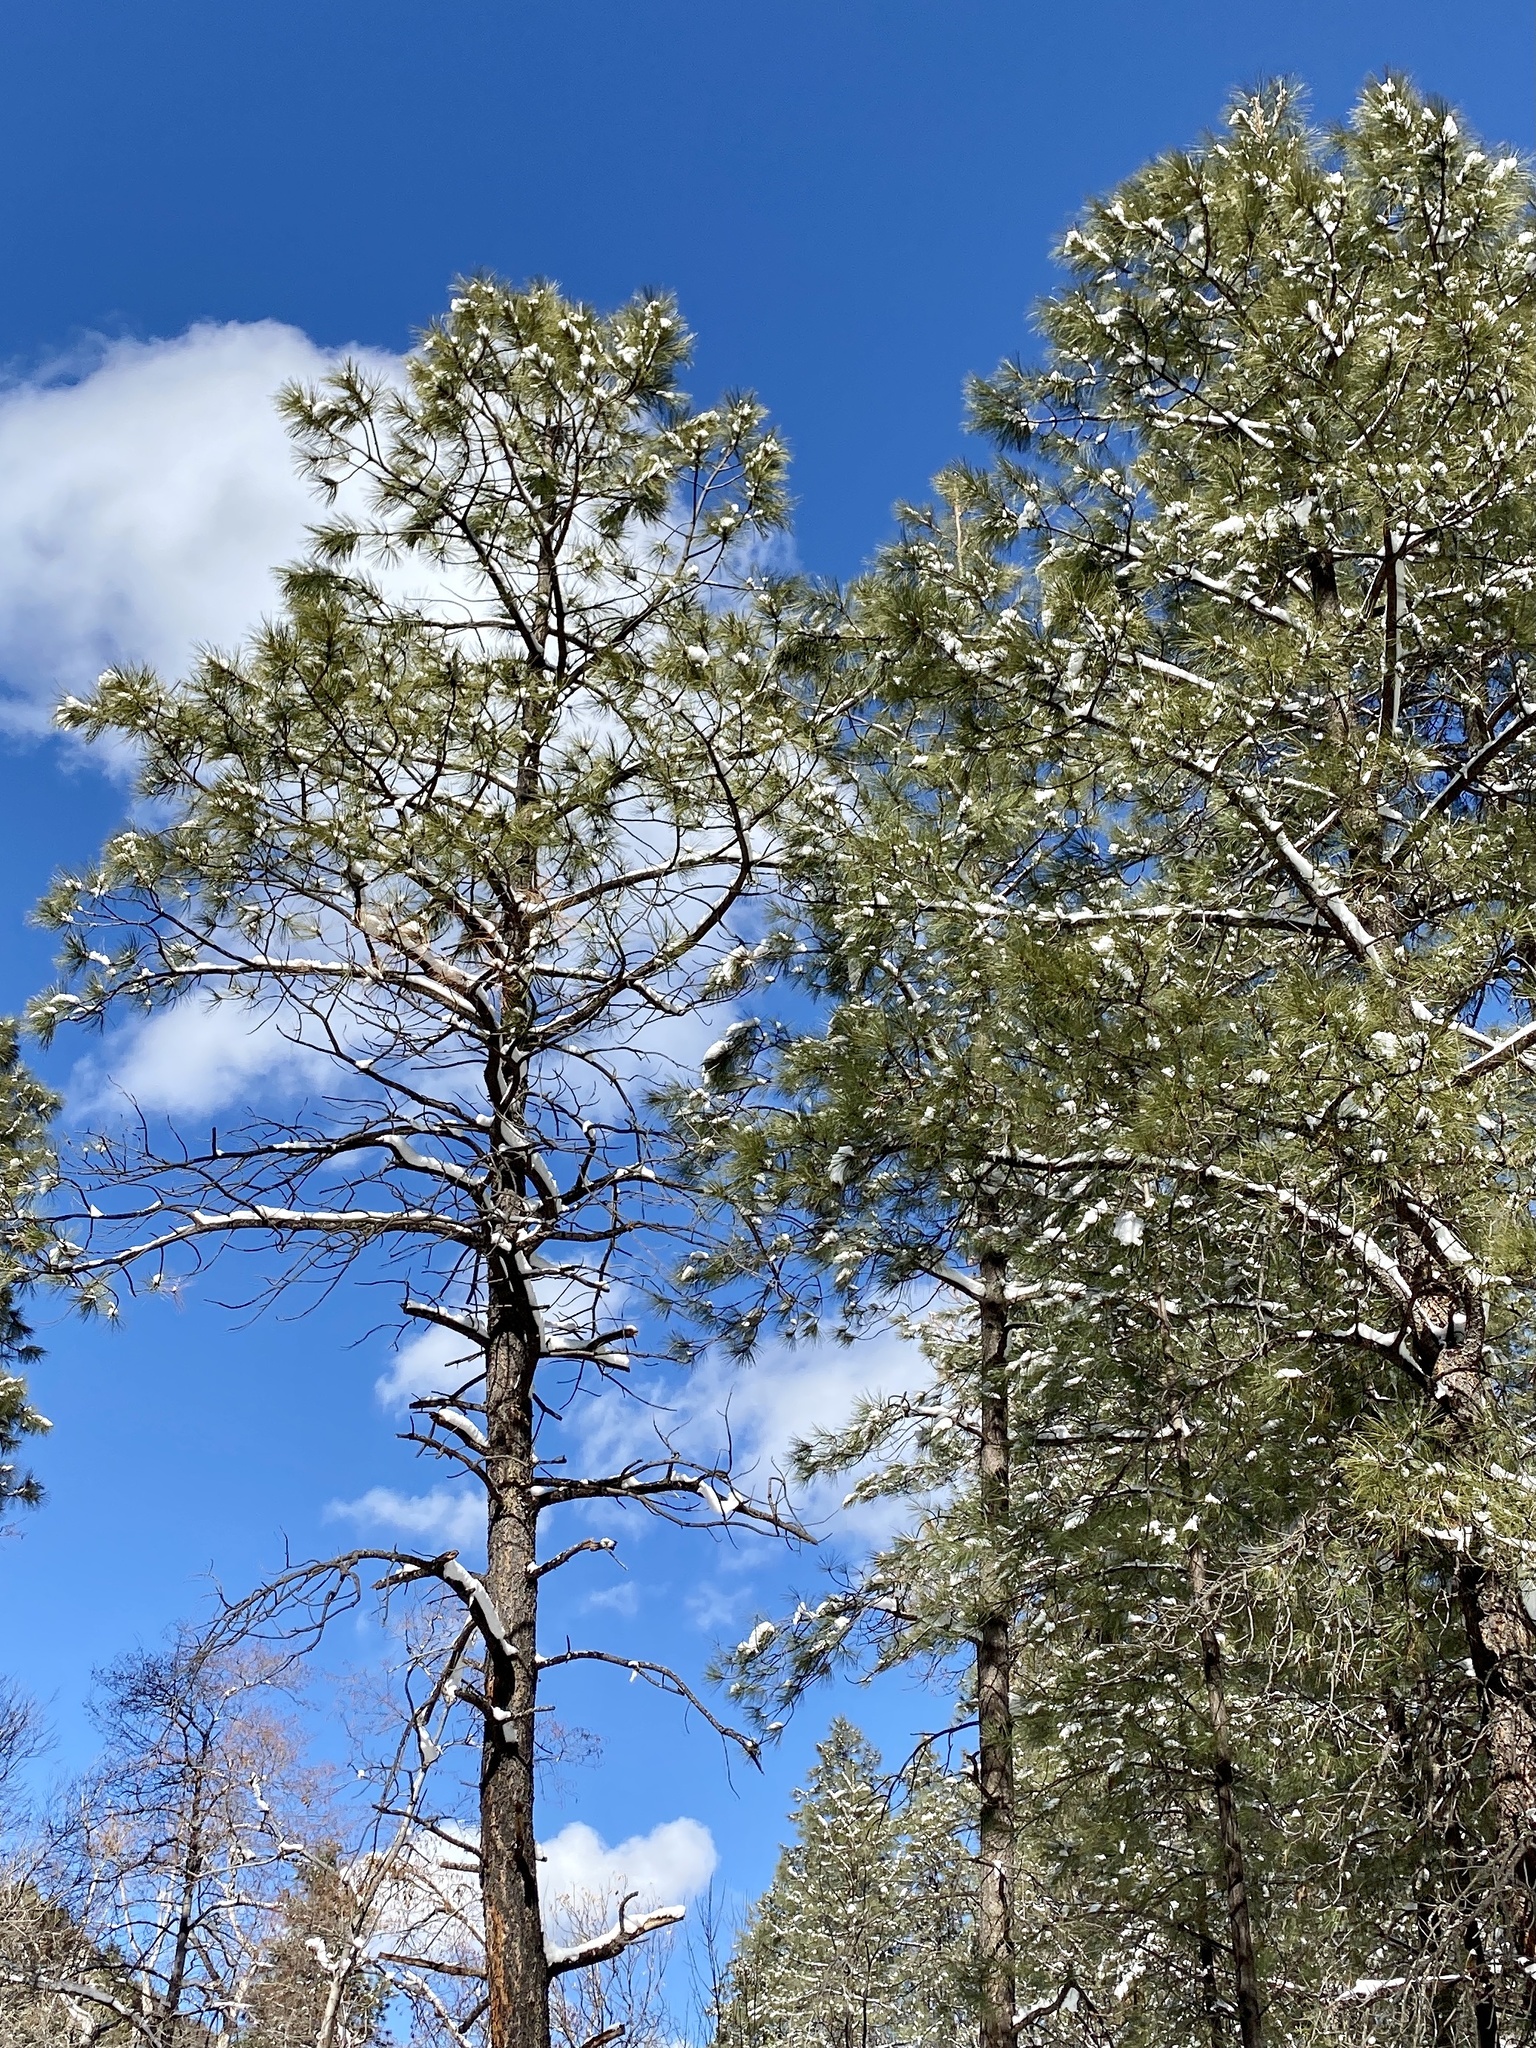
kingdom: Plantae
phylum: Tracheophyta
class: Pinopsida
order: Pinales
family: Pinaceae
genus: Pinus
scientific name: Pinus ponderosa
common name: Western yellow-pine
